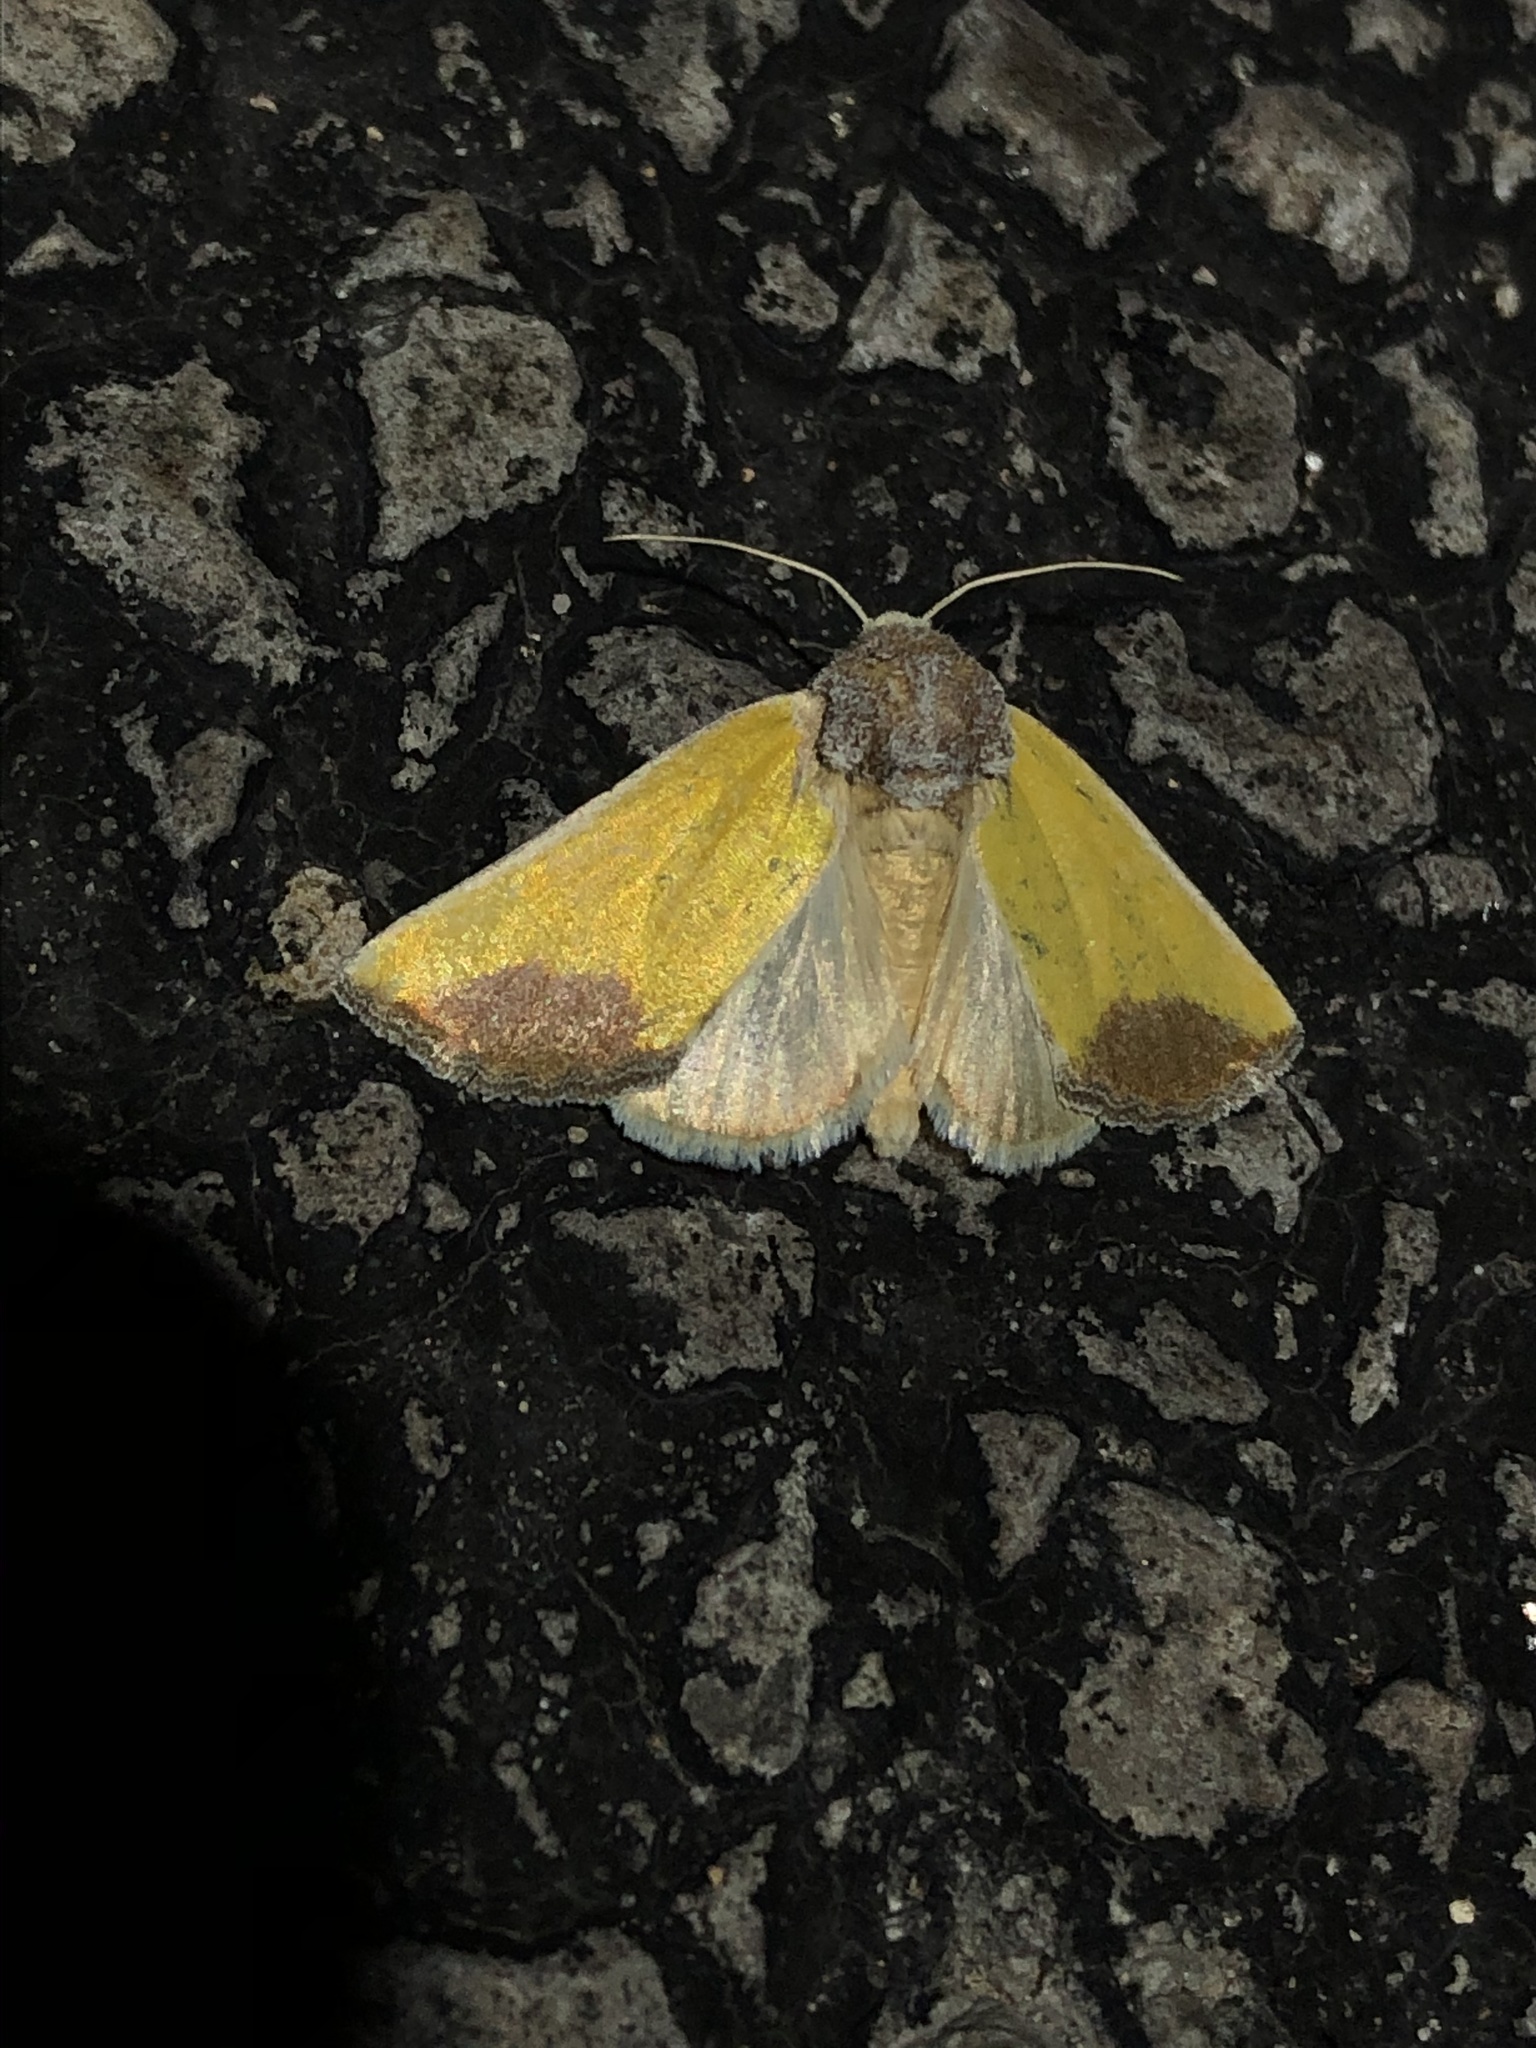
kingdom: Animalia
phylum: Arthropoda
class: Insecta
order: Lepidoptera
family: Noctuidae
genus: Stiria
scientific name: Stiria blanchardi
